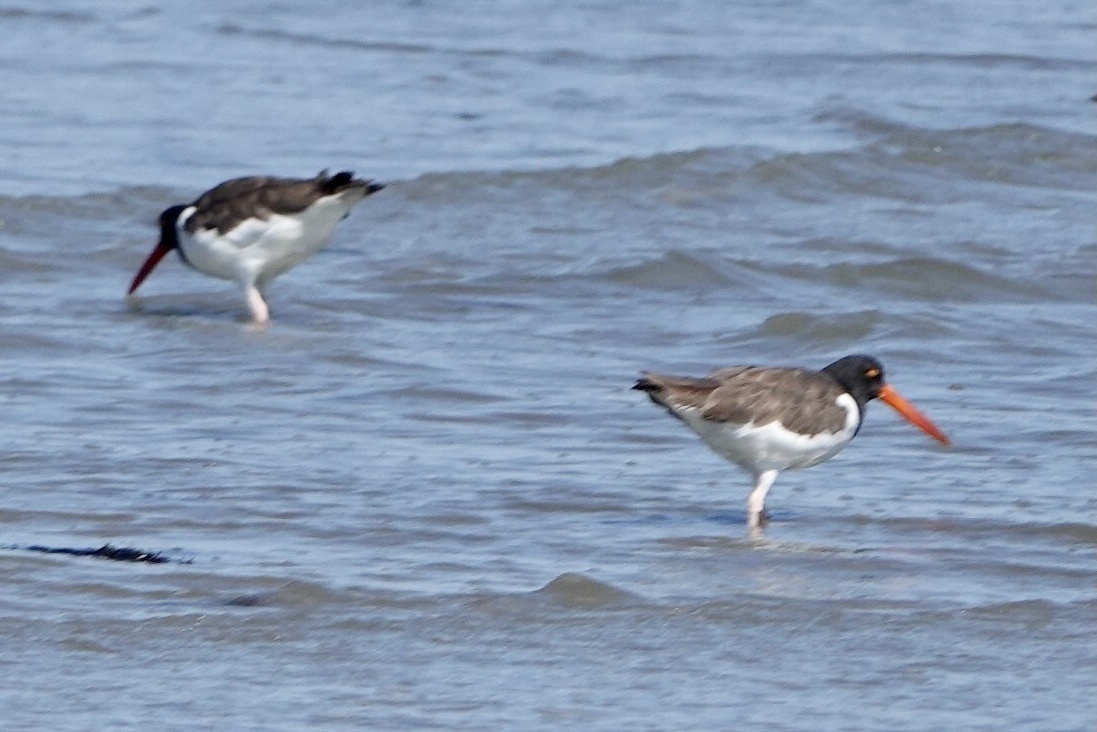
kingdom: Animalia
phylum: Chordata
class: Aves
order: Charadriiformes
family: Haematopodidae
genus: Haematopus
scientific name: Haematopus palliatus
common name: American oystercatcher
